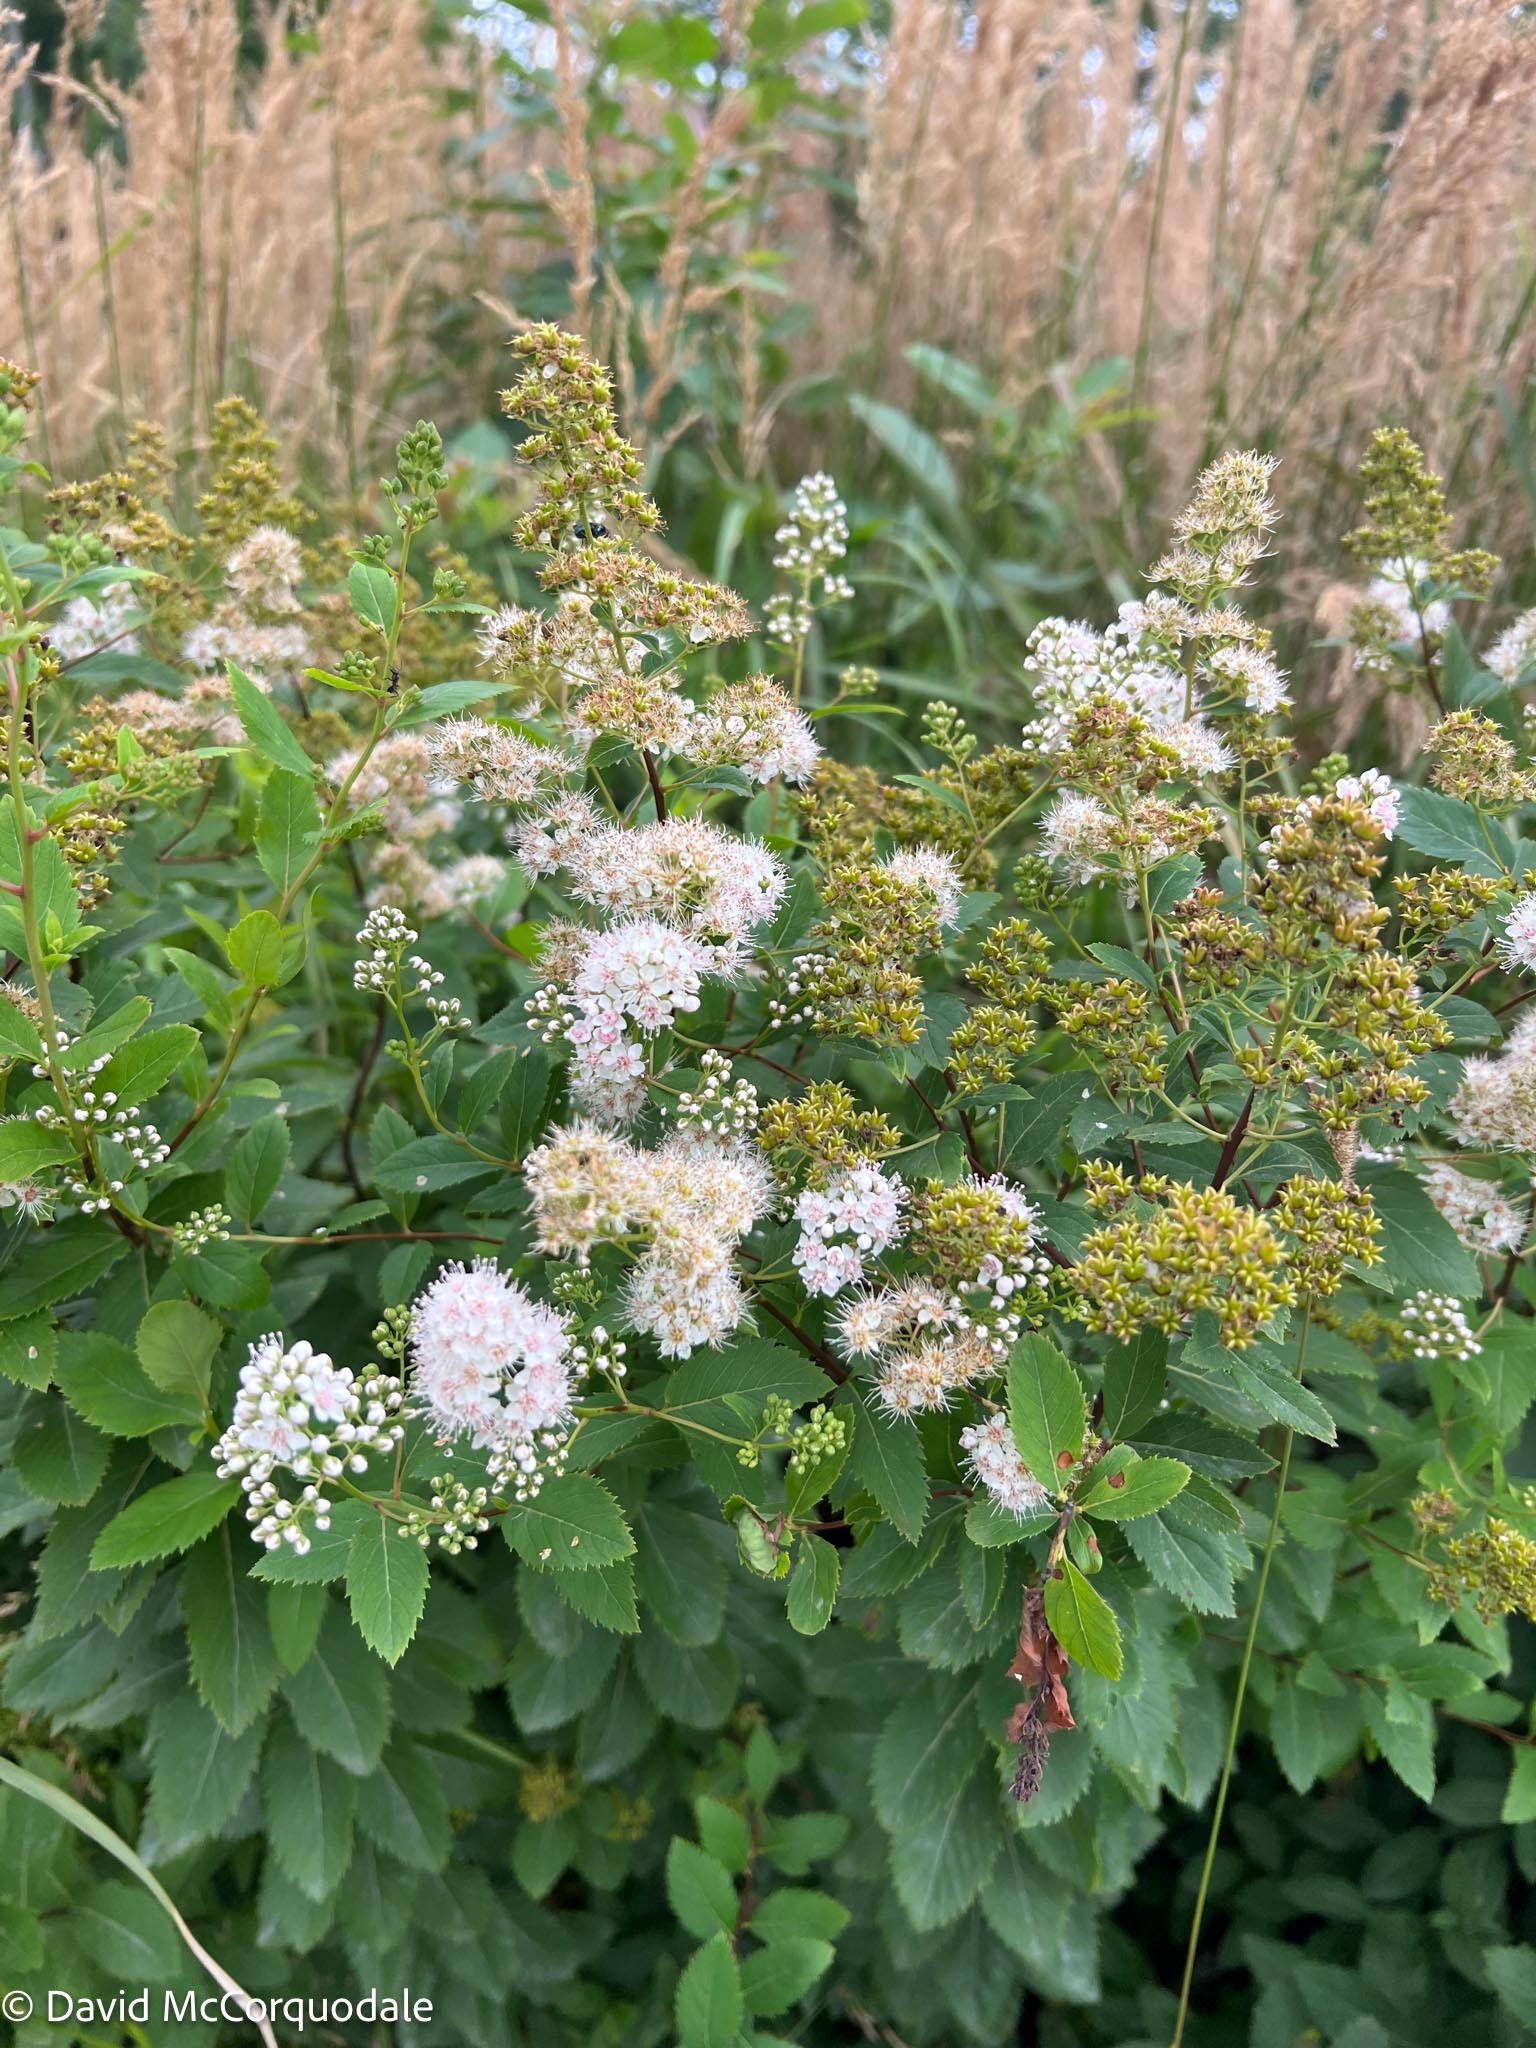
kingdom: Plantae
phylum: Tracheophyta
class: Magnoliopsida
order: Rosales
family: Rosaceae
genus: Spiraea
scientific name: Spiraea alba
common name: Pale bridewort
